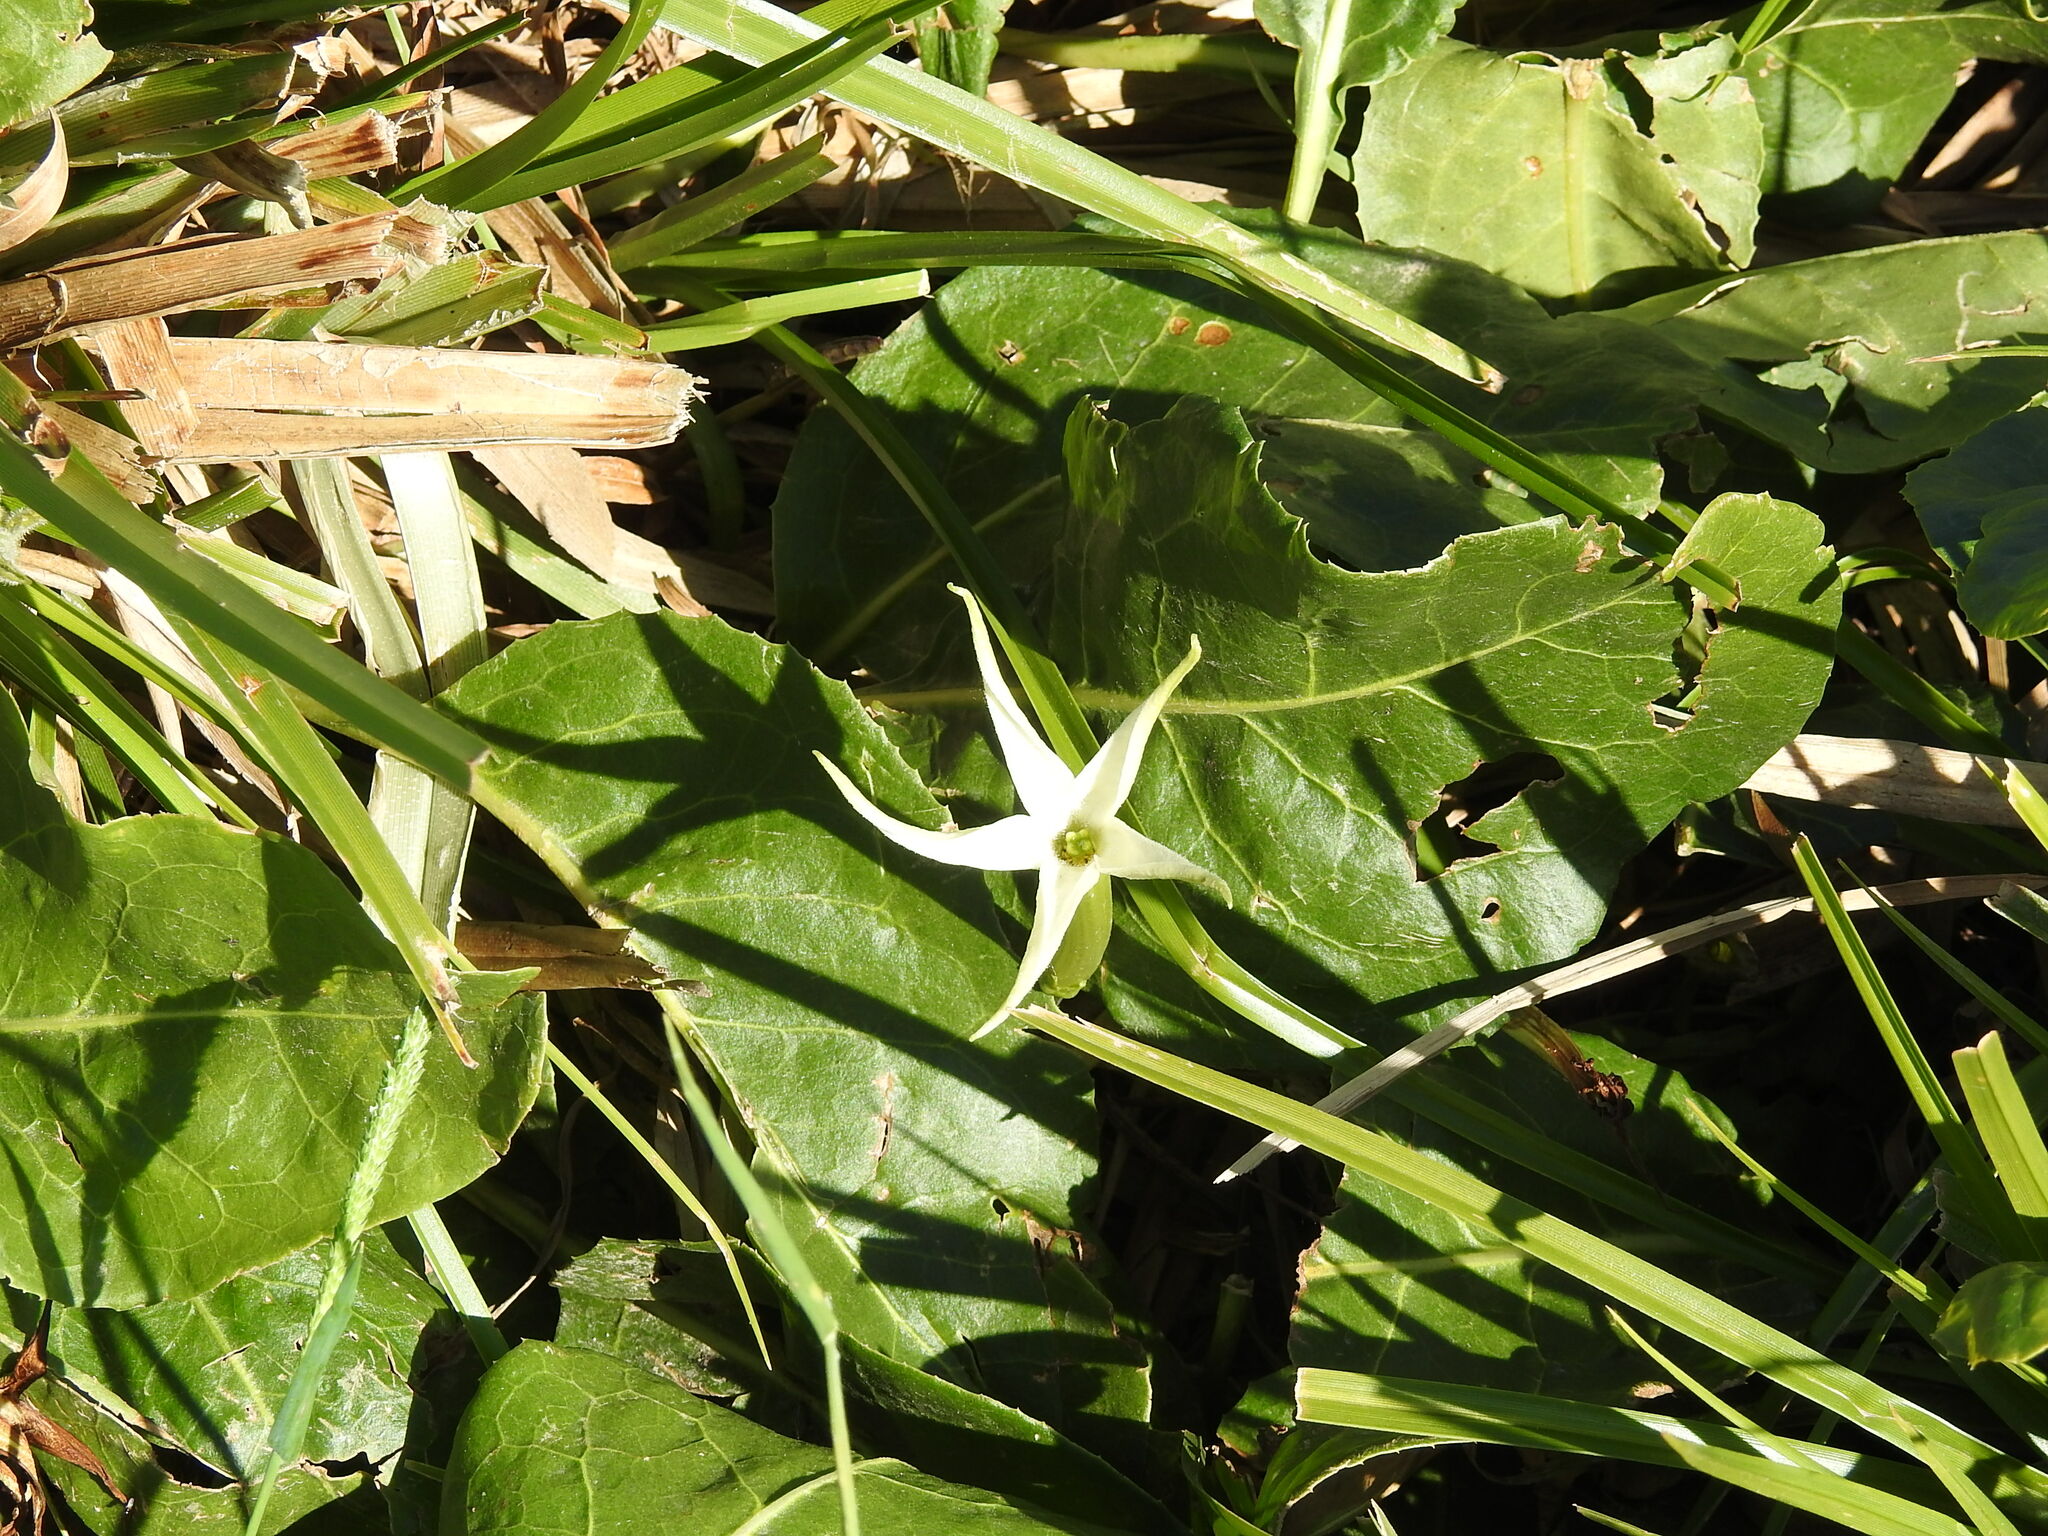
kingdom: Plantae
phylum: Tracheophyta
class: Magnoliopsida
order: Solanales
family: Solanaceae
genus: Jaborosa
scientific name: Jaborosa integrifolia
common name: Springblossom
